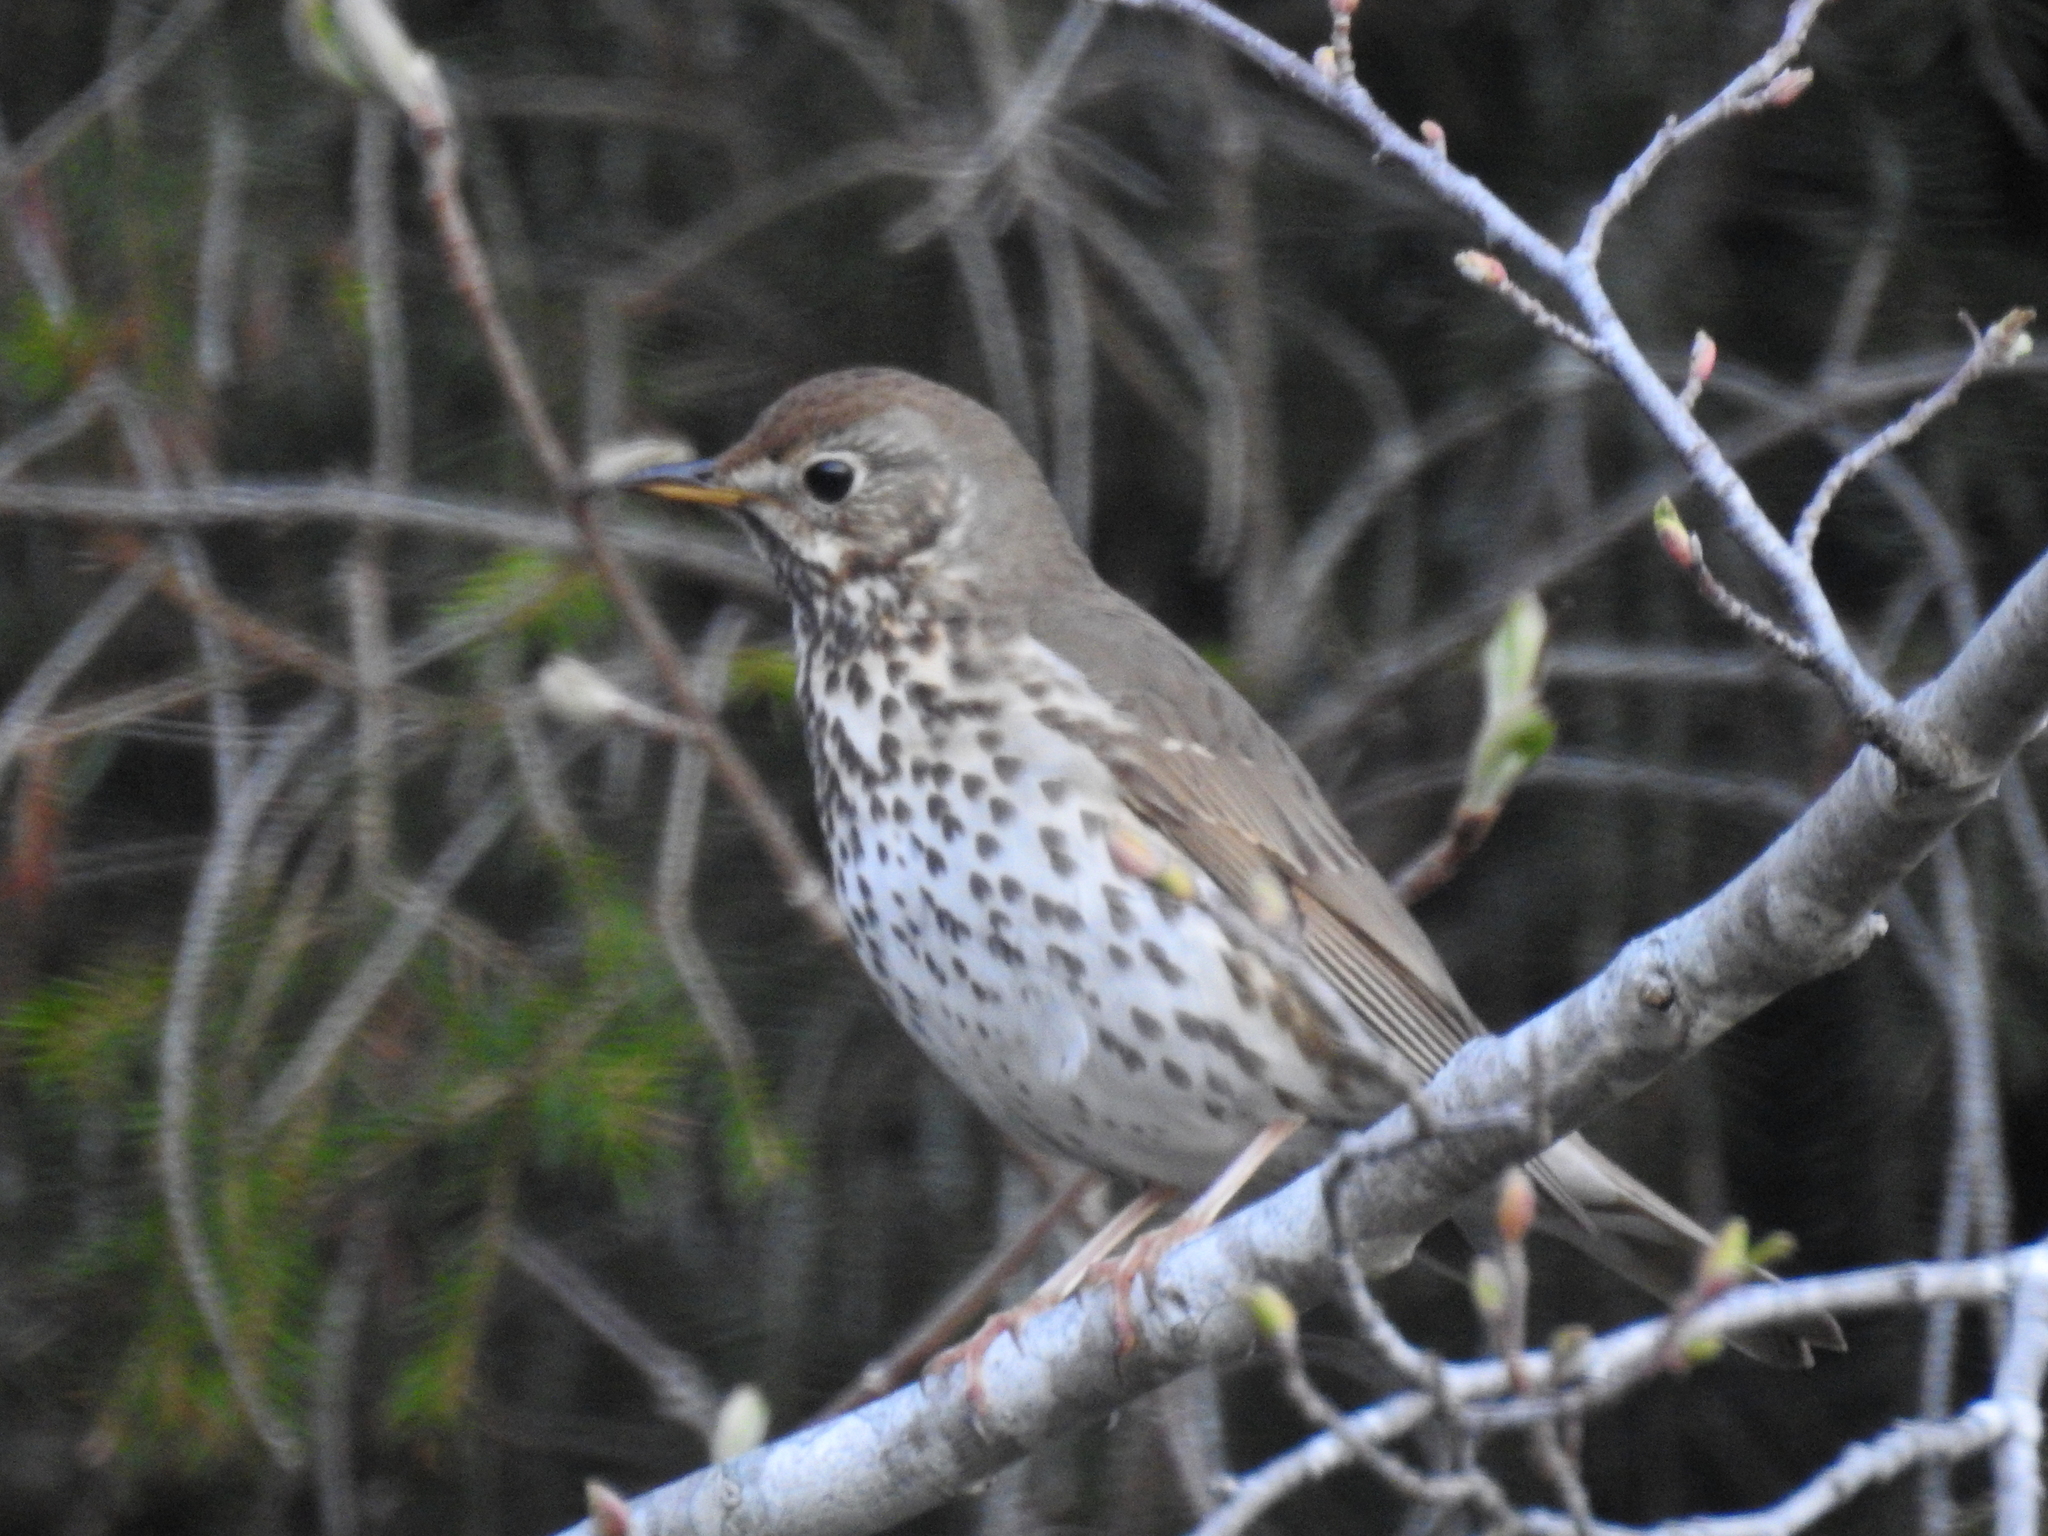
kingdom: Animalia
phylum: Chordata
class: Aves
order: Passeriformes
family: Turdidae
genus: Turdus
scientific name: Turdus philomelos
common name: Song thrush
